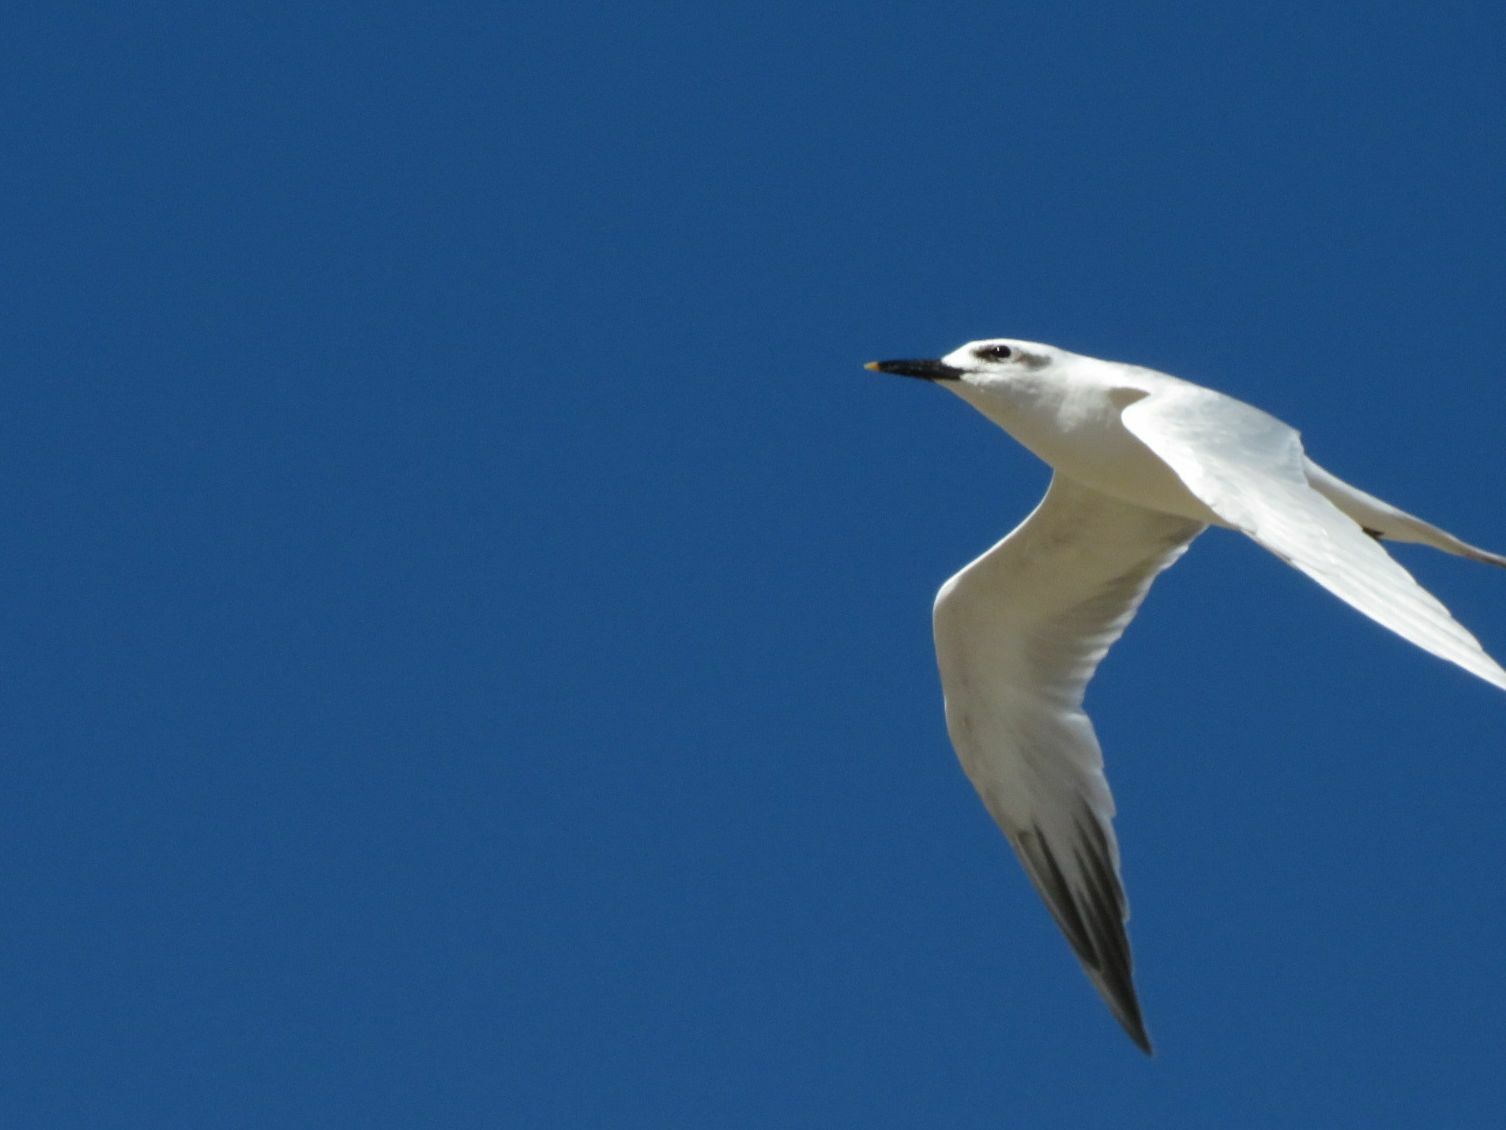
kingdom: Animalia
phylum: Chordata
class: Aves
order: Charadriiformes
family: Laridae
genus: Thalasseus
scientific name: Thalasseus sandvicensis
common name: Sandwich tern
